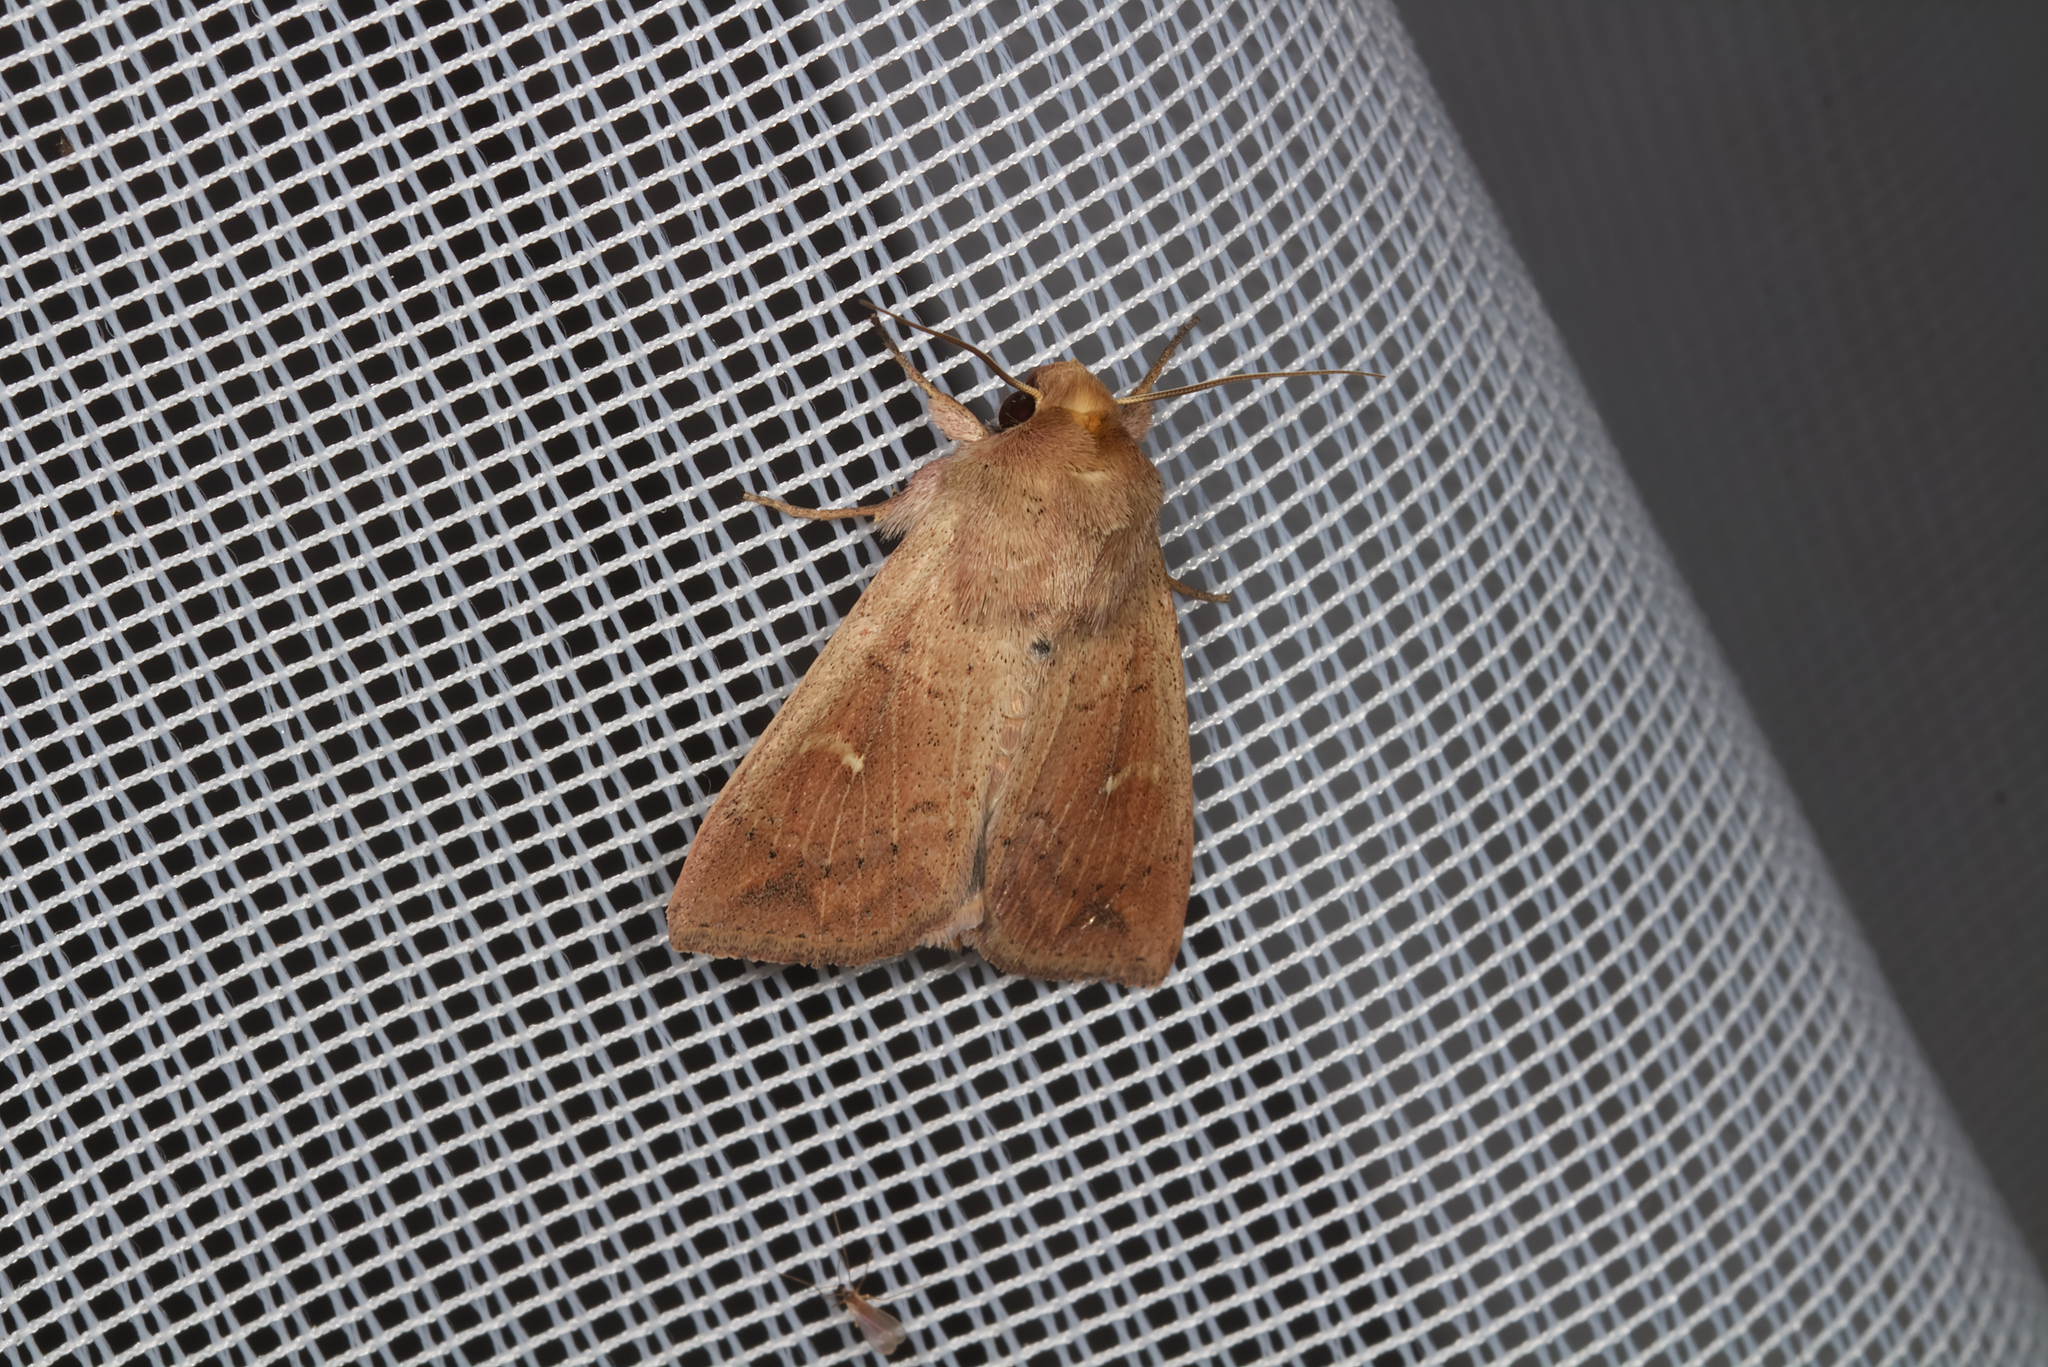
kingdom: Animalia
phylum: Arthropoda
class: Insecta
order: Lepidoptera
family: Noctuidae
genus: Mythimna
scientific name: Mythimna ferrago
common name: Clay
